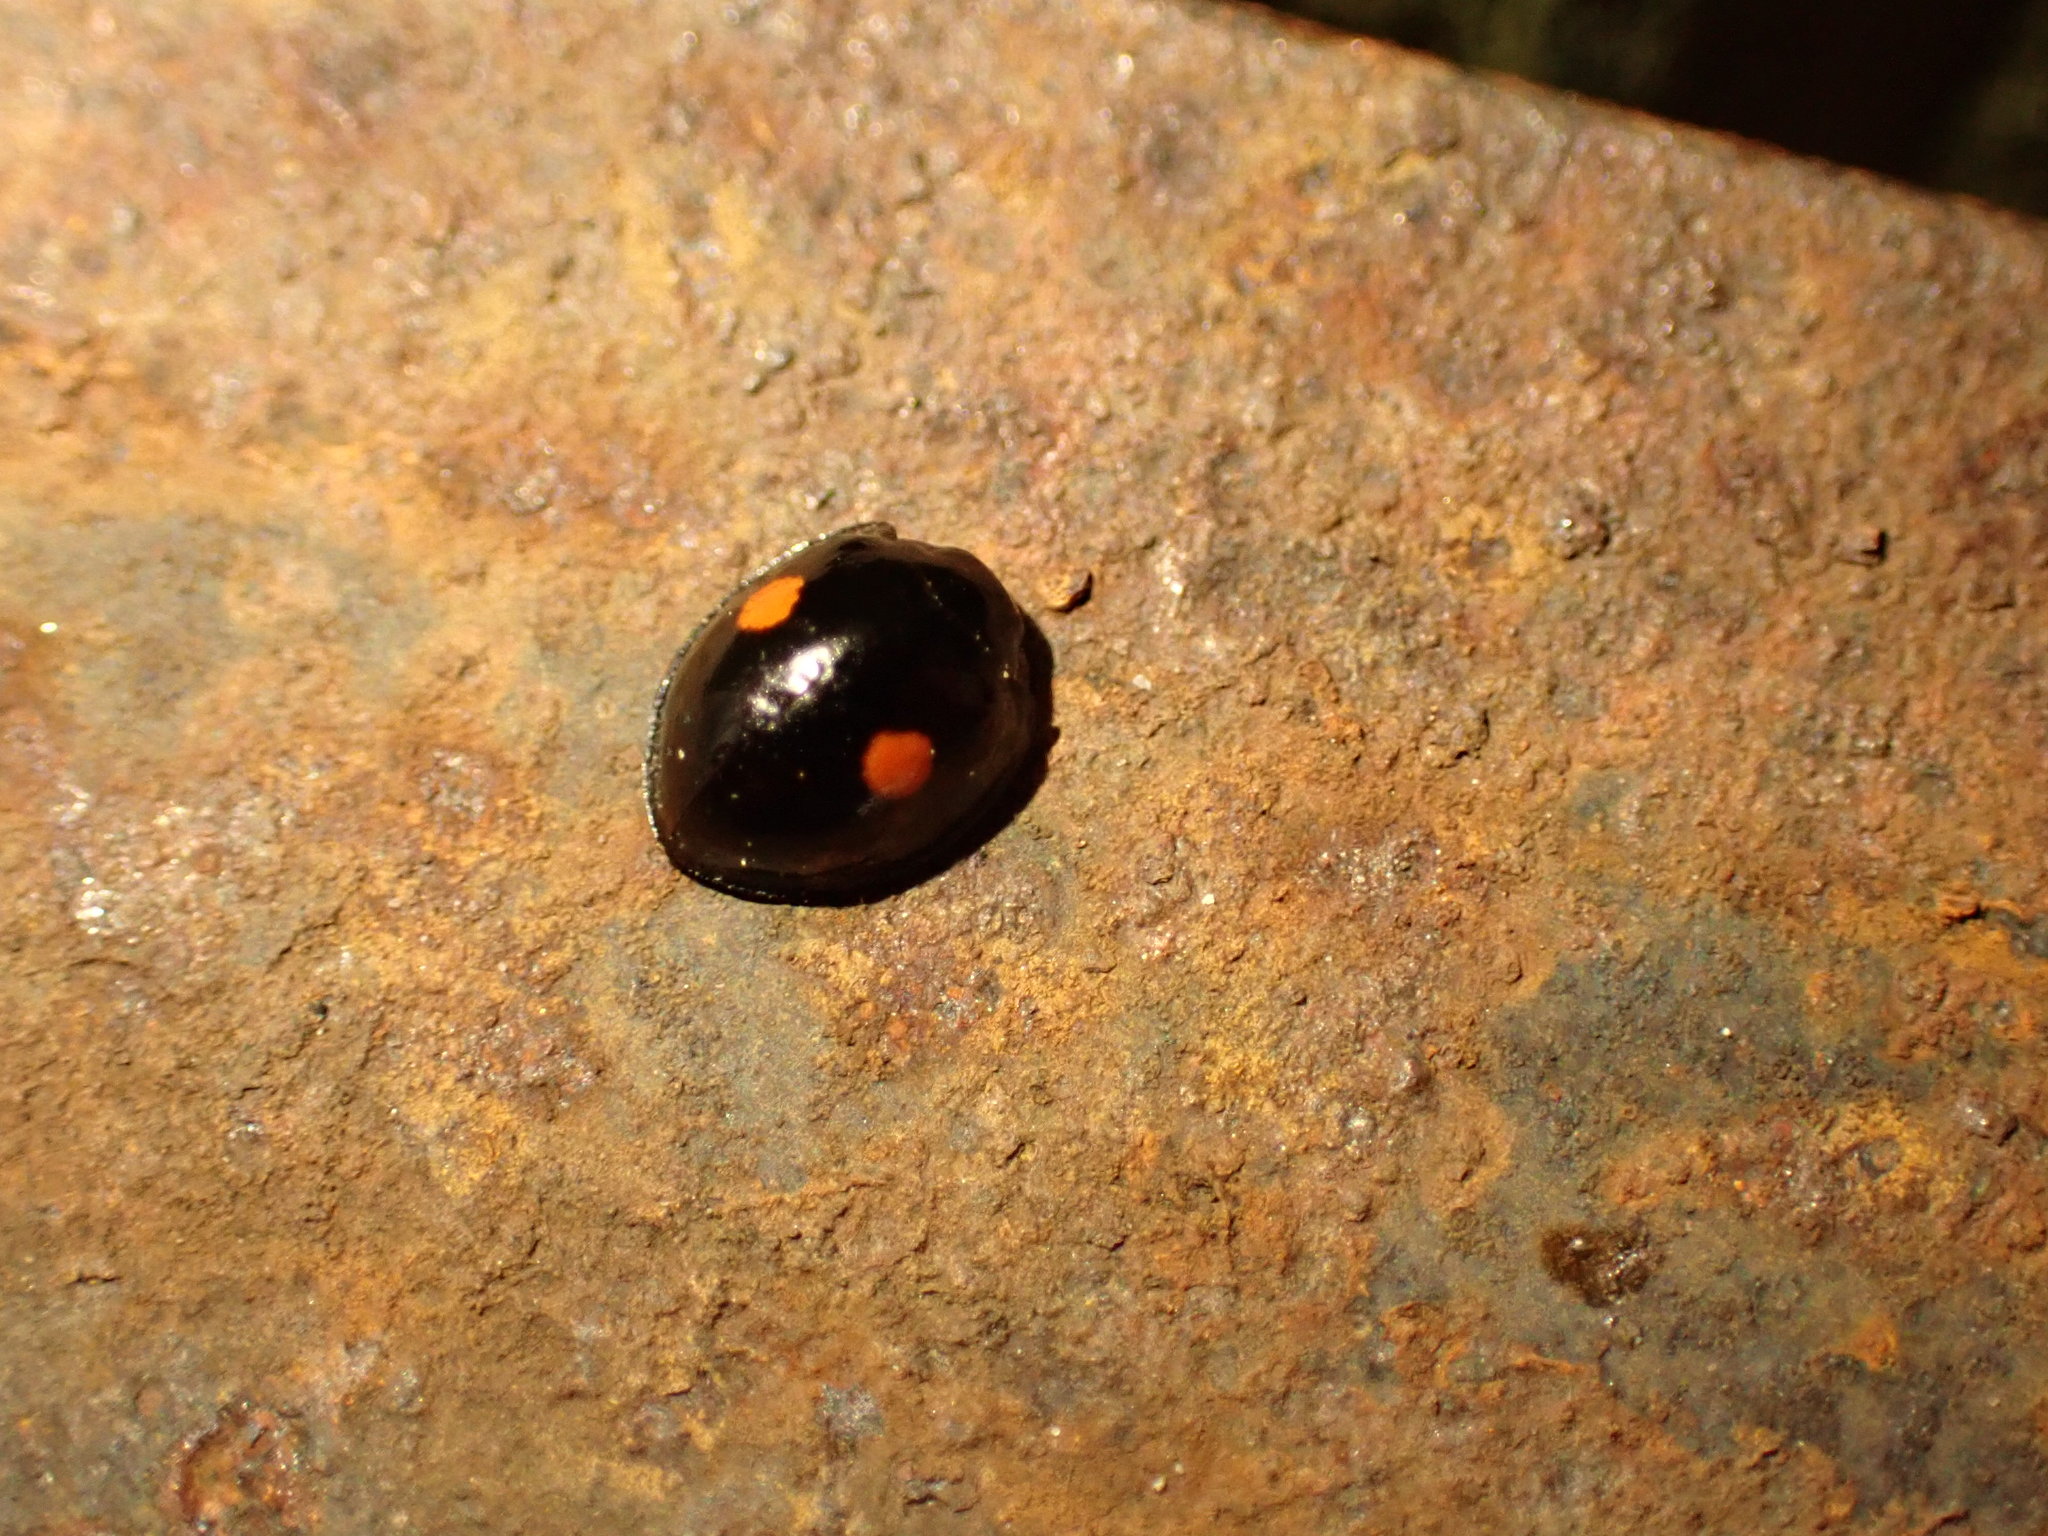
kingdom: Animalia
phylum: Arthropoda
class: Insecta
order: Coleoptera
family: Coccinellidae
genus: Chilocorus
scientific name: Chilocorus stigma
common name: Twicestabbed lady beetle
